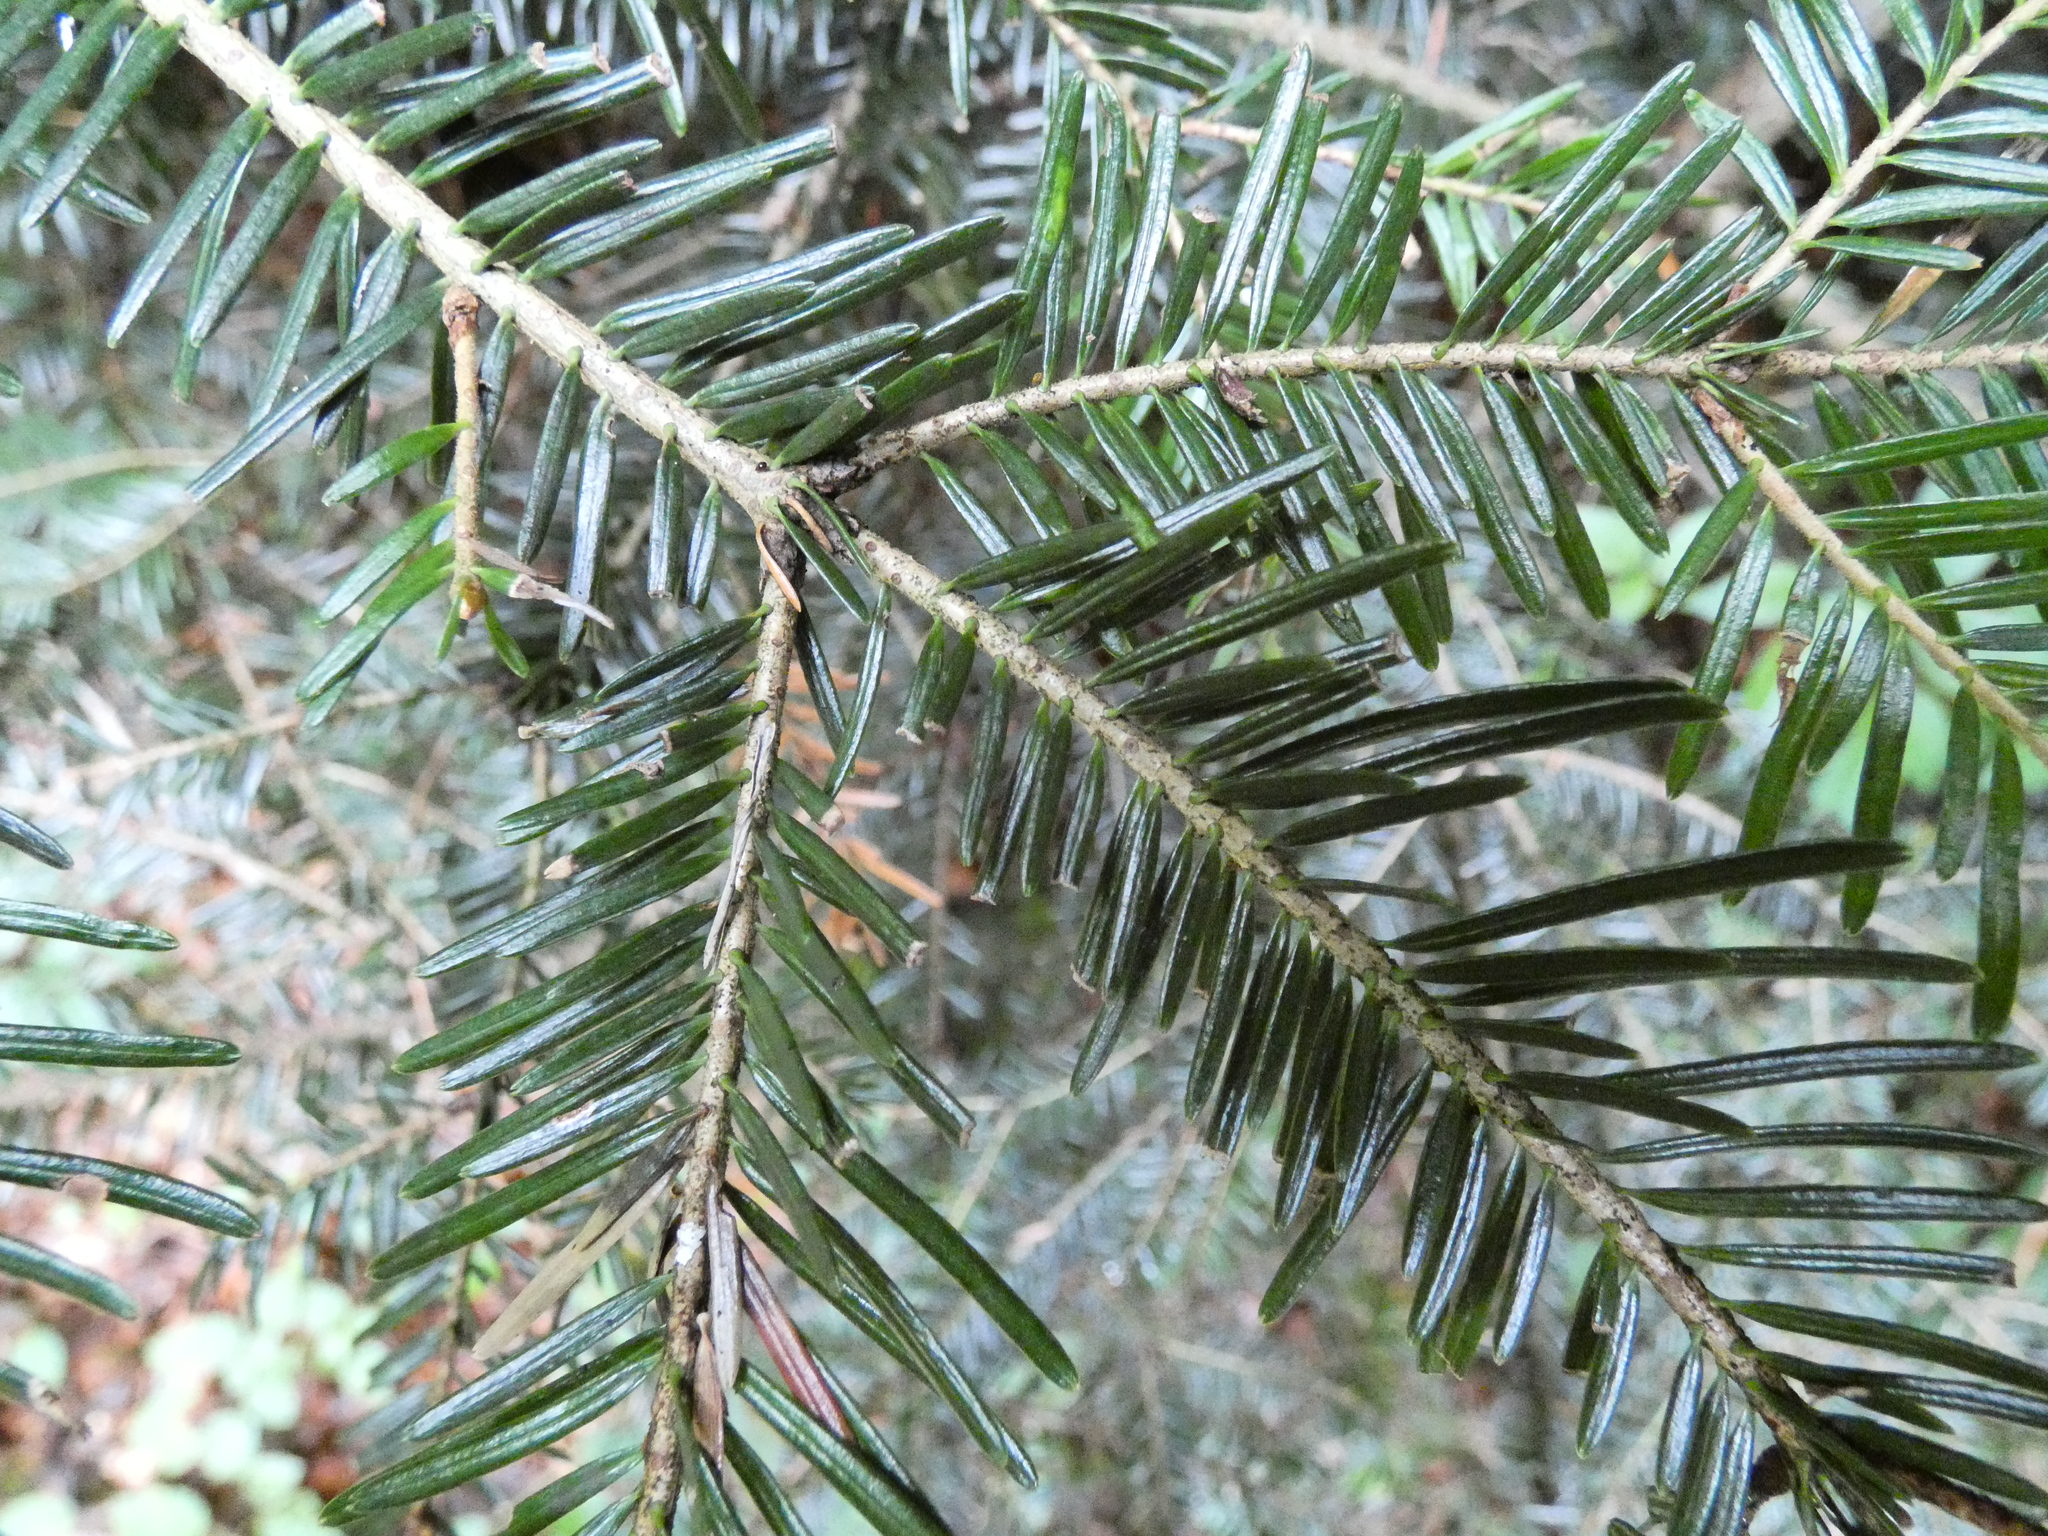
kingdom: Plantae
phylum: Tracheophyta
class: Pinopsida
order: Pinales
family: Pinaceae
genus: Abies
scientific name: Abies alba
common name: Silver fir
